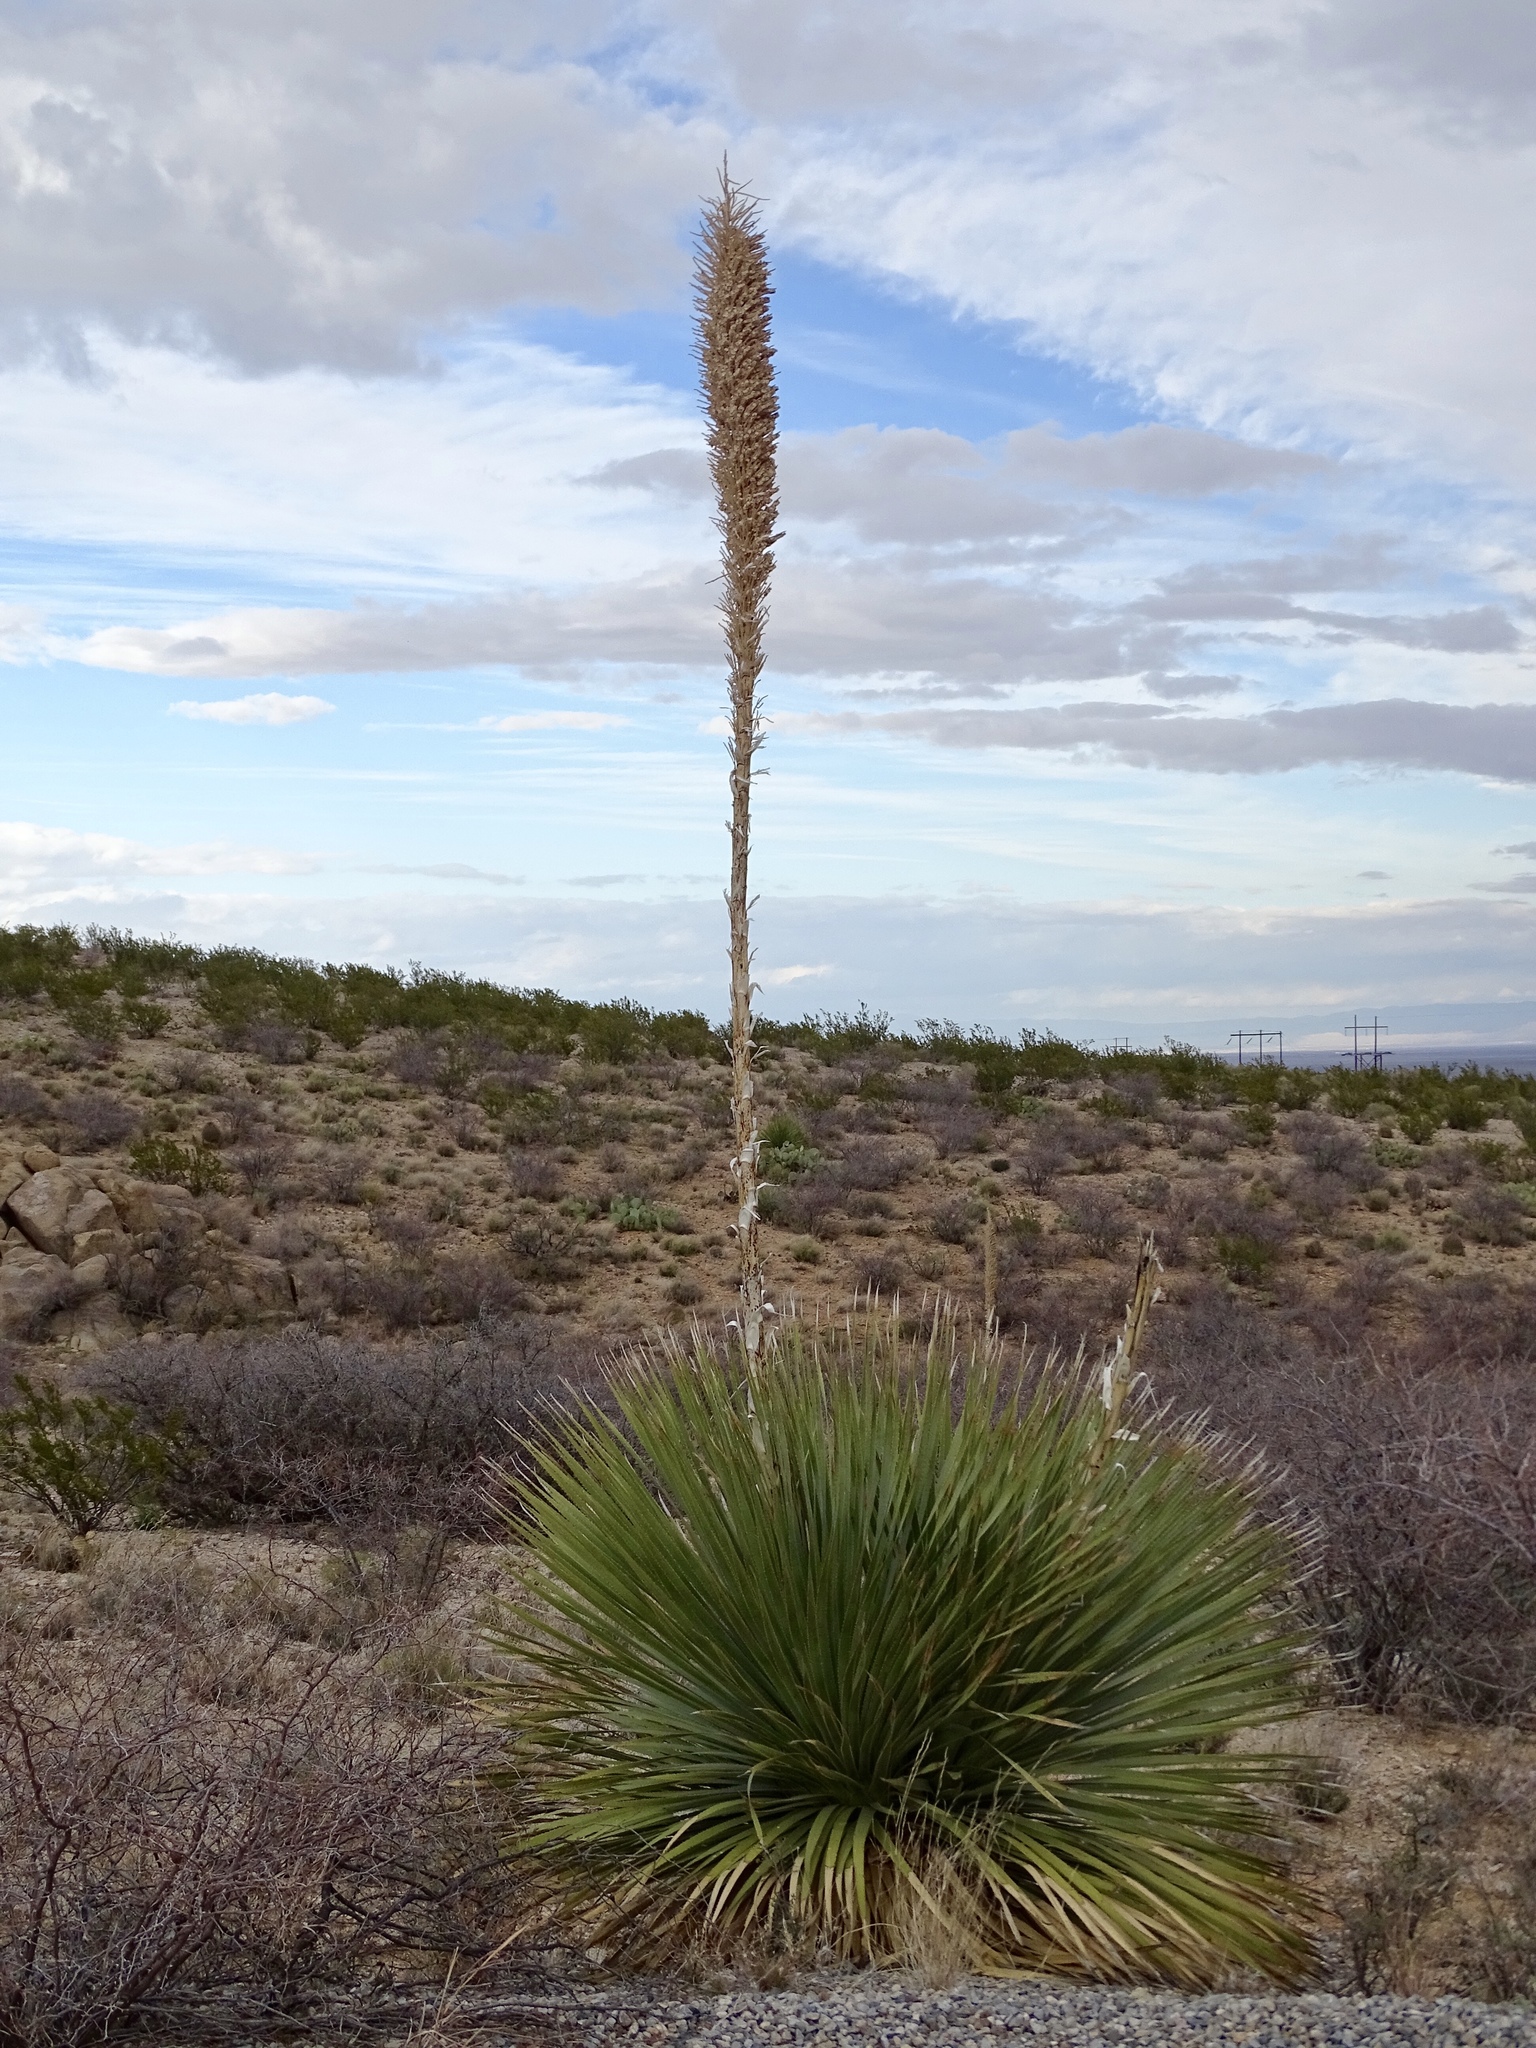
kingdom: Plantae
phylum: Tracheophyta
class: Liliopsida
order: Asparagales
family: Asparagaceae
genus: Dasylirion
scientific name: Dasylirion wheeleri
